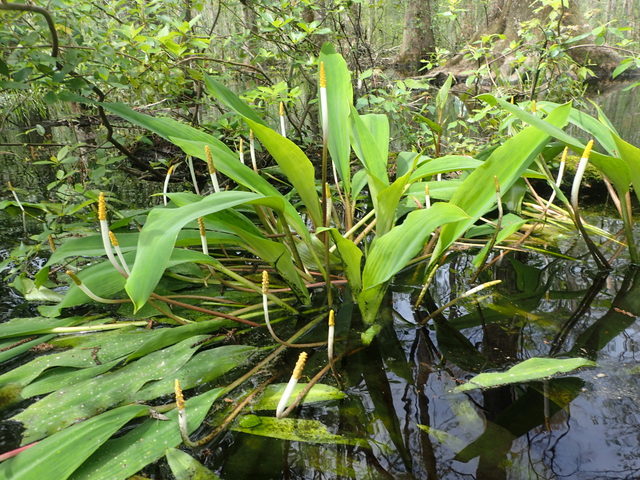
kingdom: Plantae
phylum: Tracheophyta
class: Liliopsida
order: Alismatales
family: Araceae
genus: Orontium
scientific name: Orontium aquaticum
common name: Golden-club
